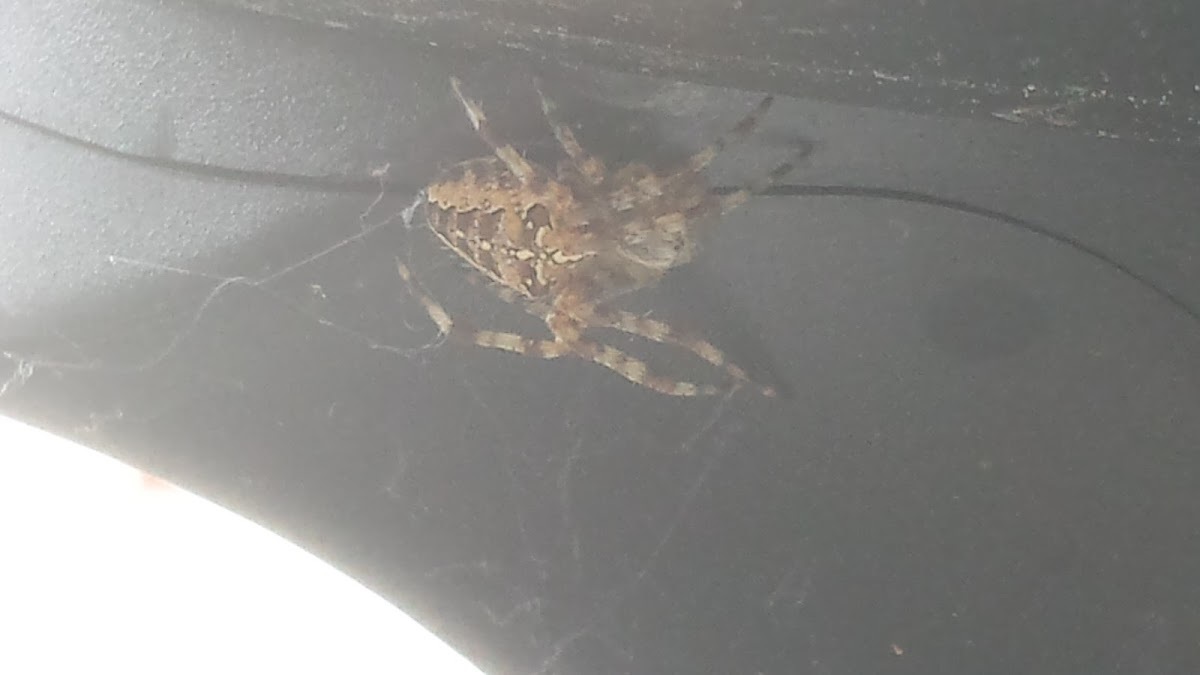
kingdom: Animalia
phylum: Arthropoda
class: Arachnida
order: Araneae
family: Araneidae
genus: Araneus
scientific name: Araneus diadematus
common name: Cross orbweaver
